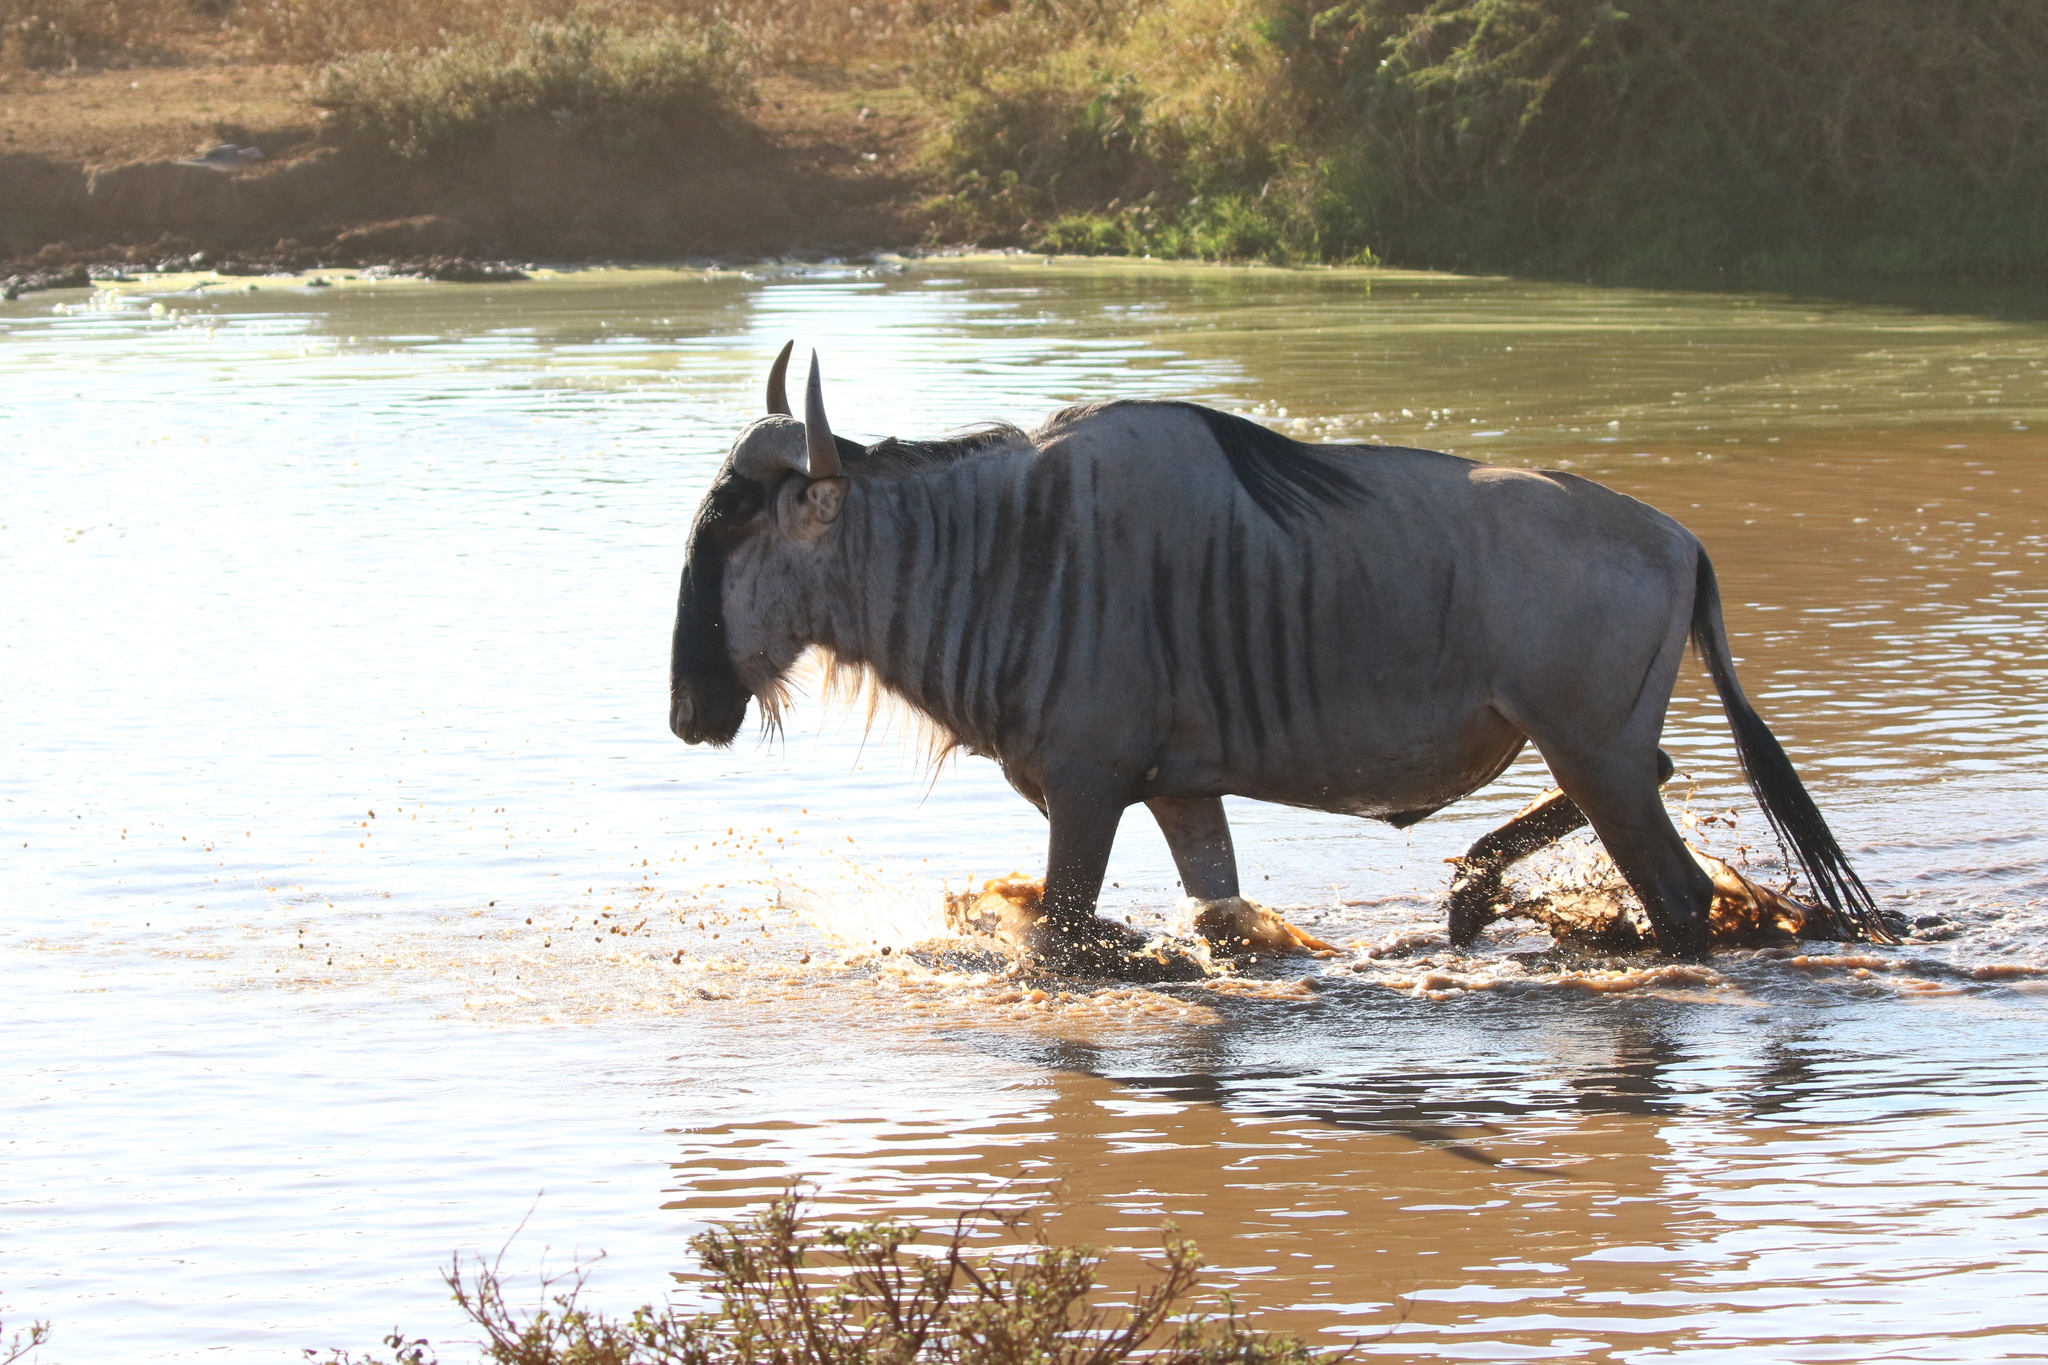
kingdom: Animalia
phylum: Chordata
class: Mammalia
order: Artiodactyla
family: Bovidae
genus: Connochaetes
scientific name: Connochaetes taurinus
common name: Blue wildebeest
